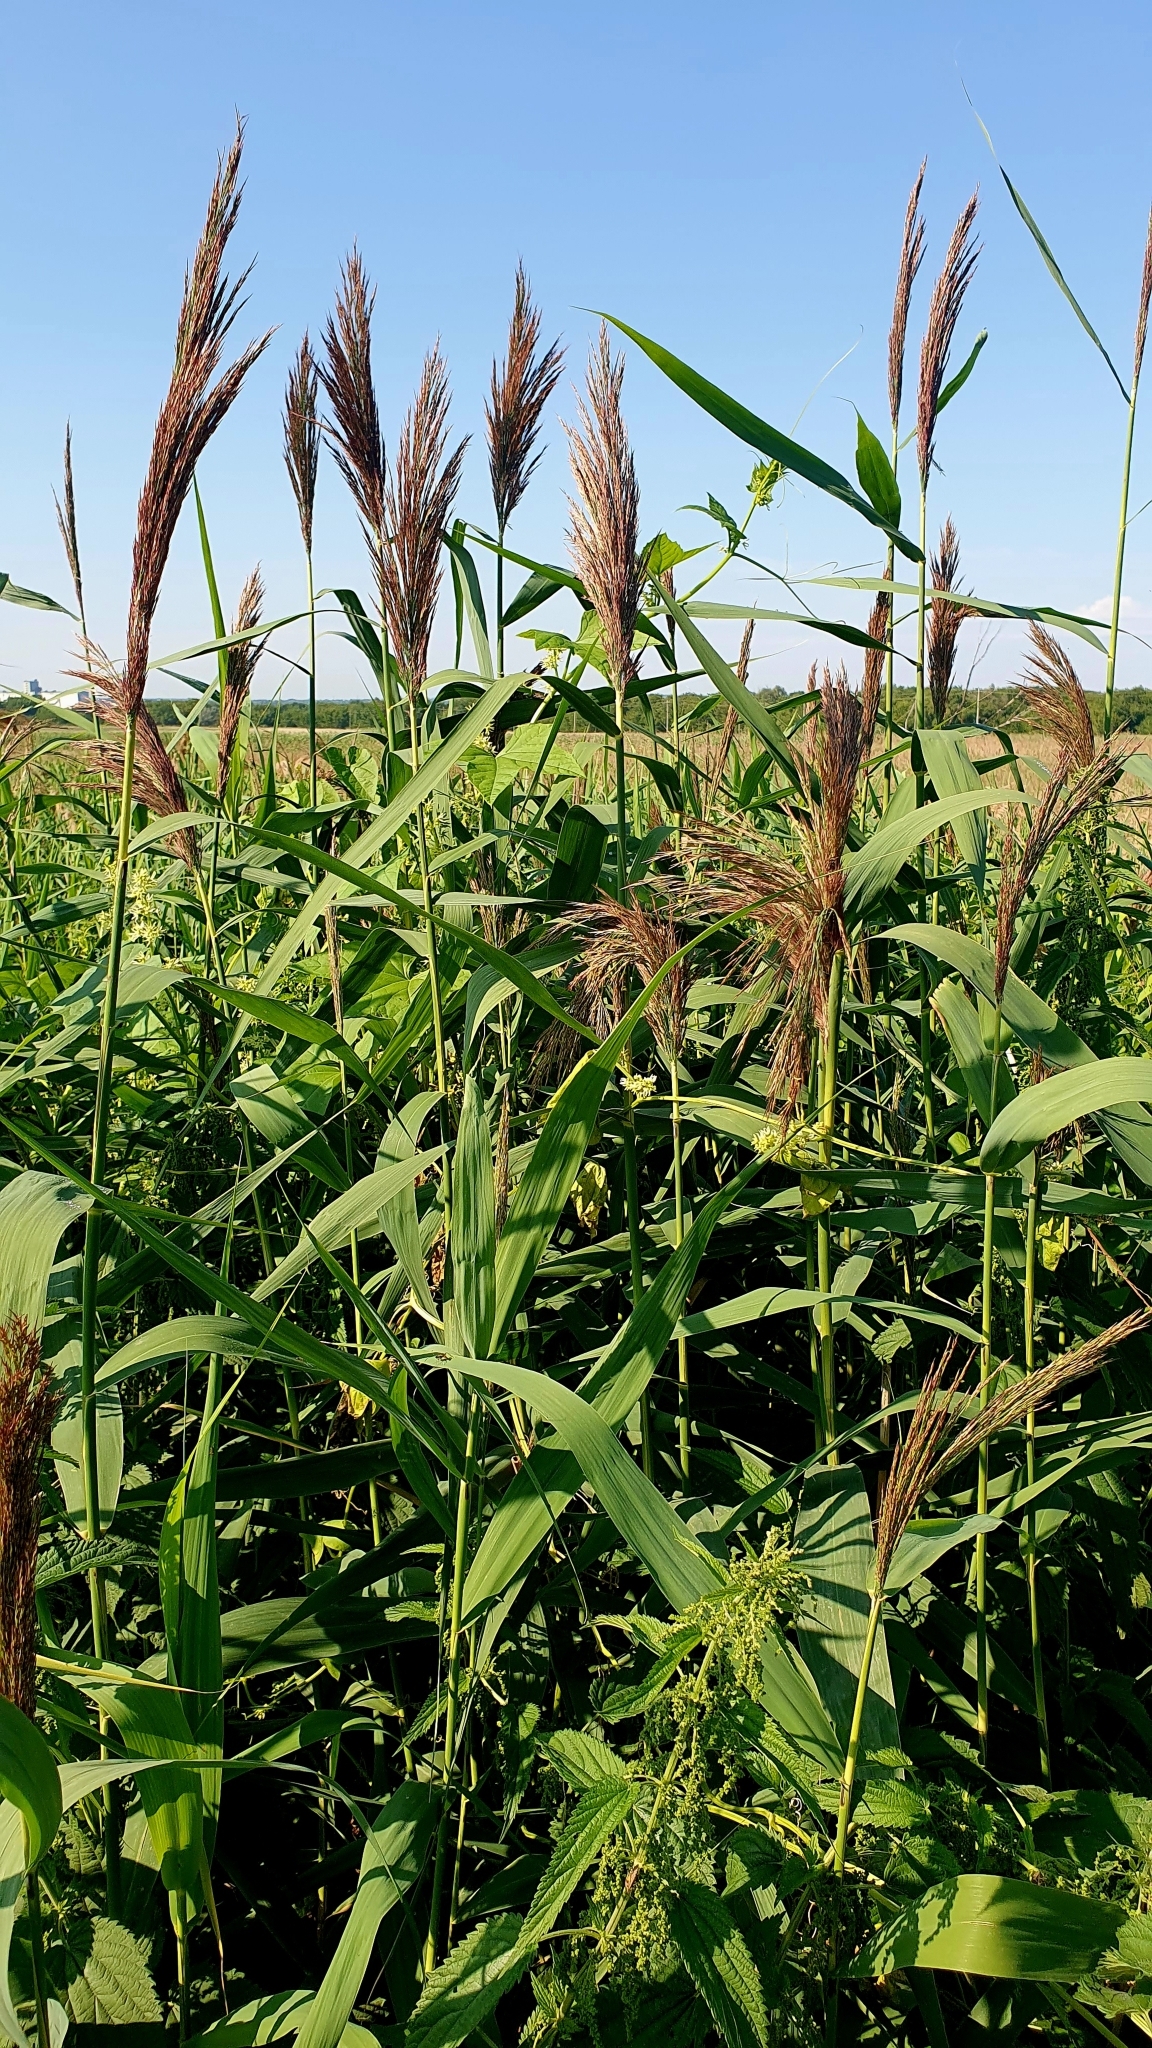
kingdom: Plantae
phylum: Tracheophyta
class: Liliopsida
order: Poales
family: Poaceae
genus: Phragmites
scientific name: Phragmites australis
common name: Common reed
